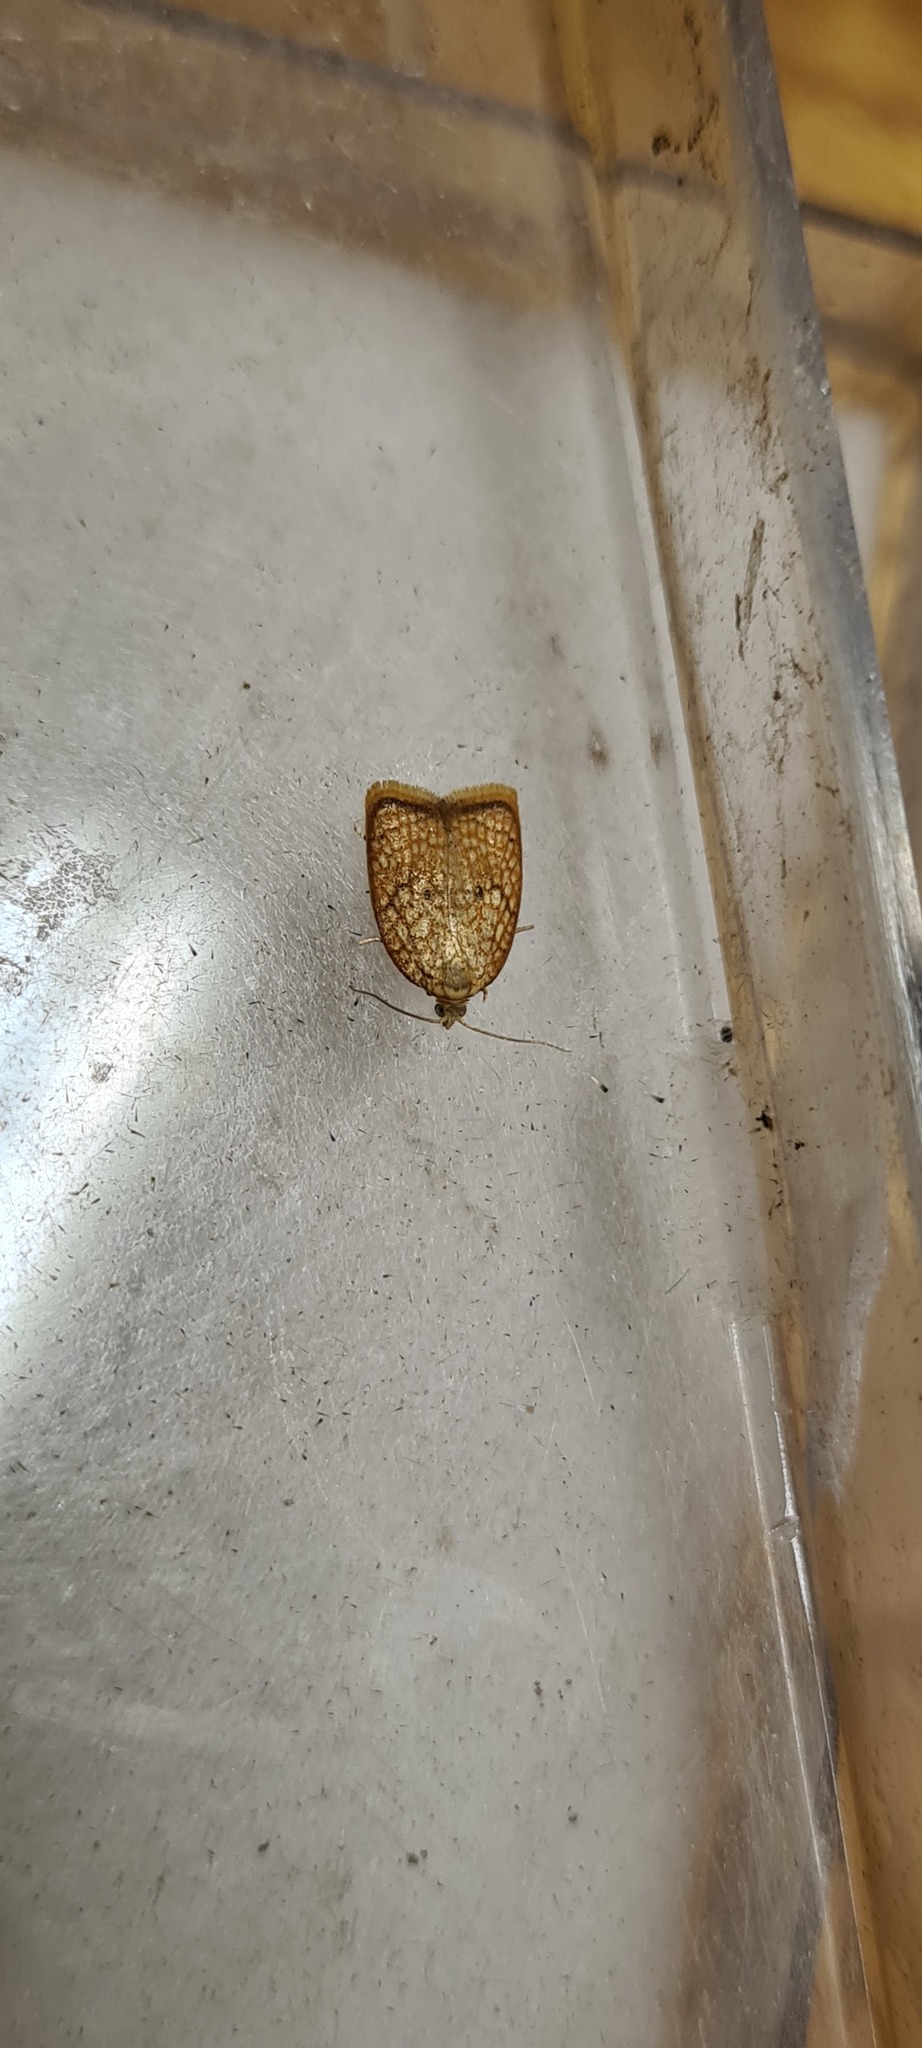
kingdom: Animalia
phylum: Arthropoda
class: Insecta
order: Lepidoptera
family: Tortricidae
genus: Acleris
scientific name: Acleris forsskaleana
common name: Maple button
